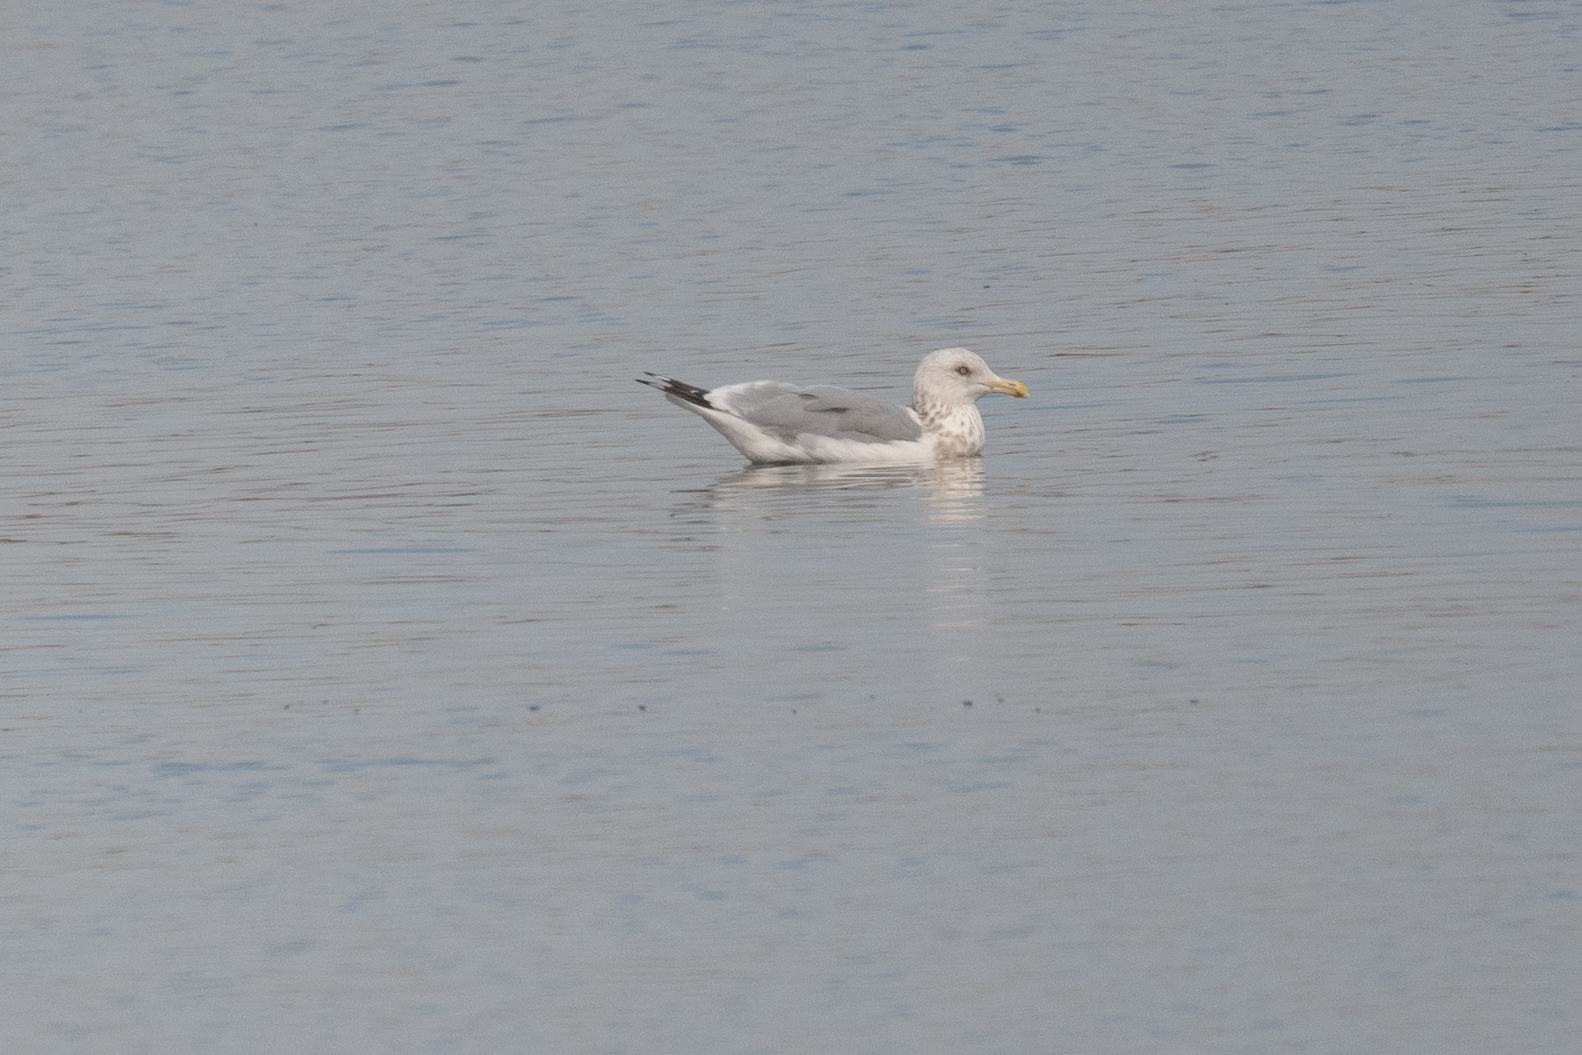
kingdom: Animalia
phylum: Chordata
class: Aves
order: Charadriiformes
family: Laridae
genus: Larus
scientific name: Larus argentatus
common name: Herring gull
